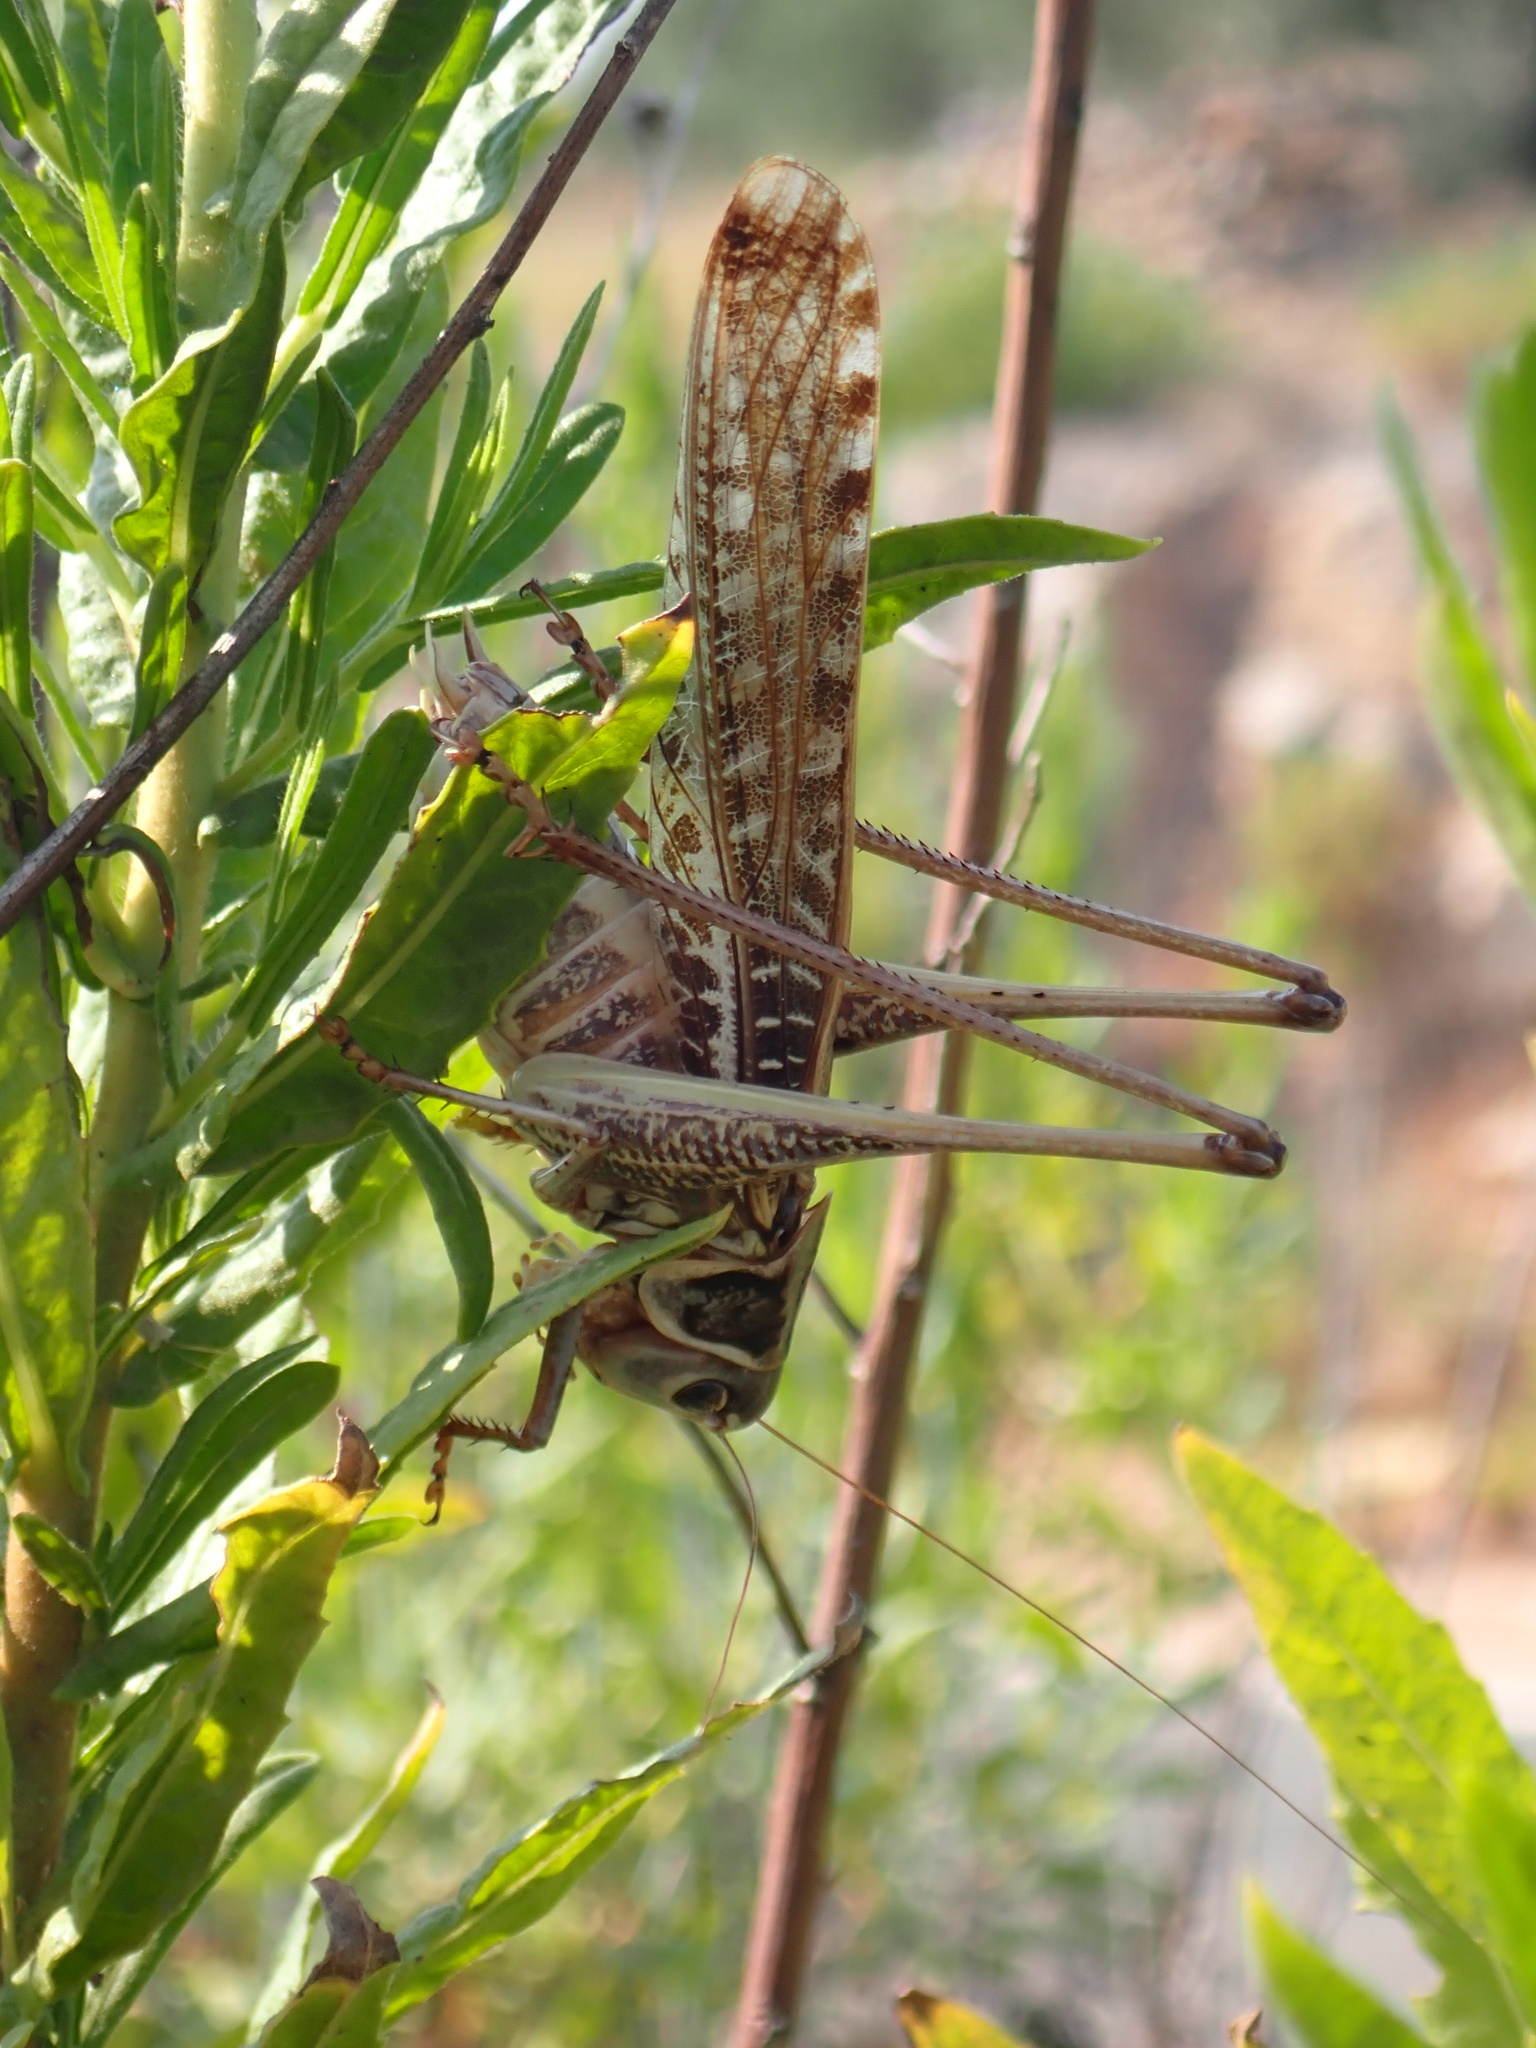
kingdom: Animalia
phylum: Arthropoda
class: Insecta
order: Orthoptera
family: Tettigoniidae
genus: Decticus
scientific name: Decticus albifrons
